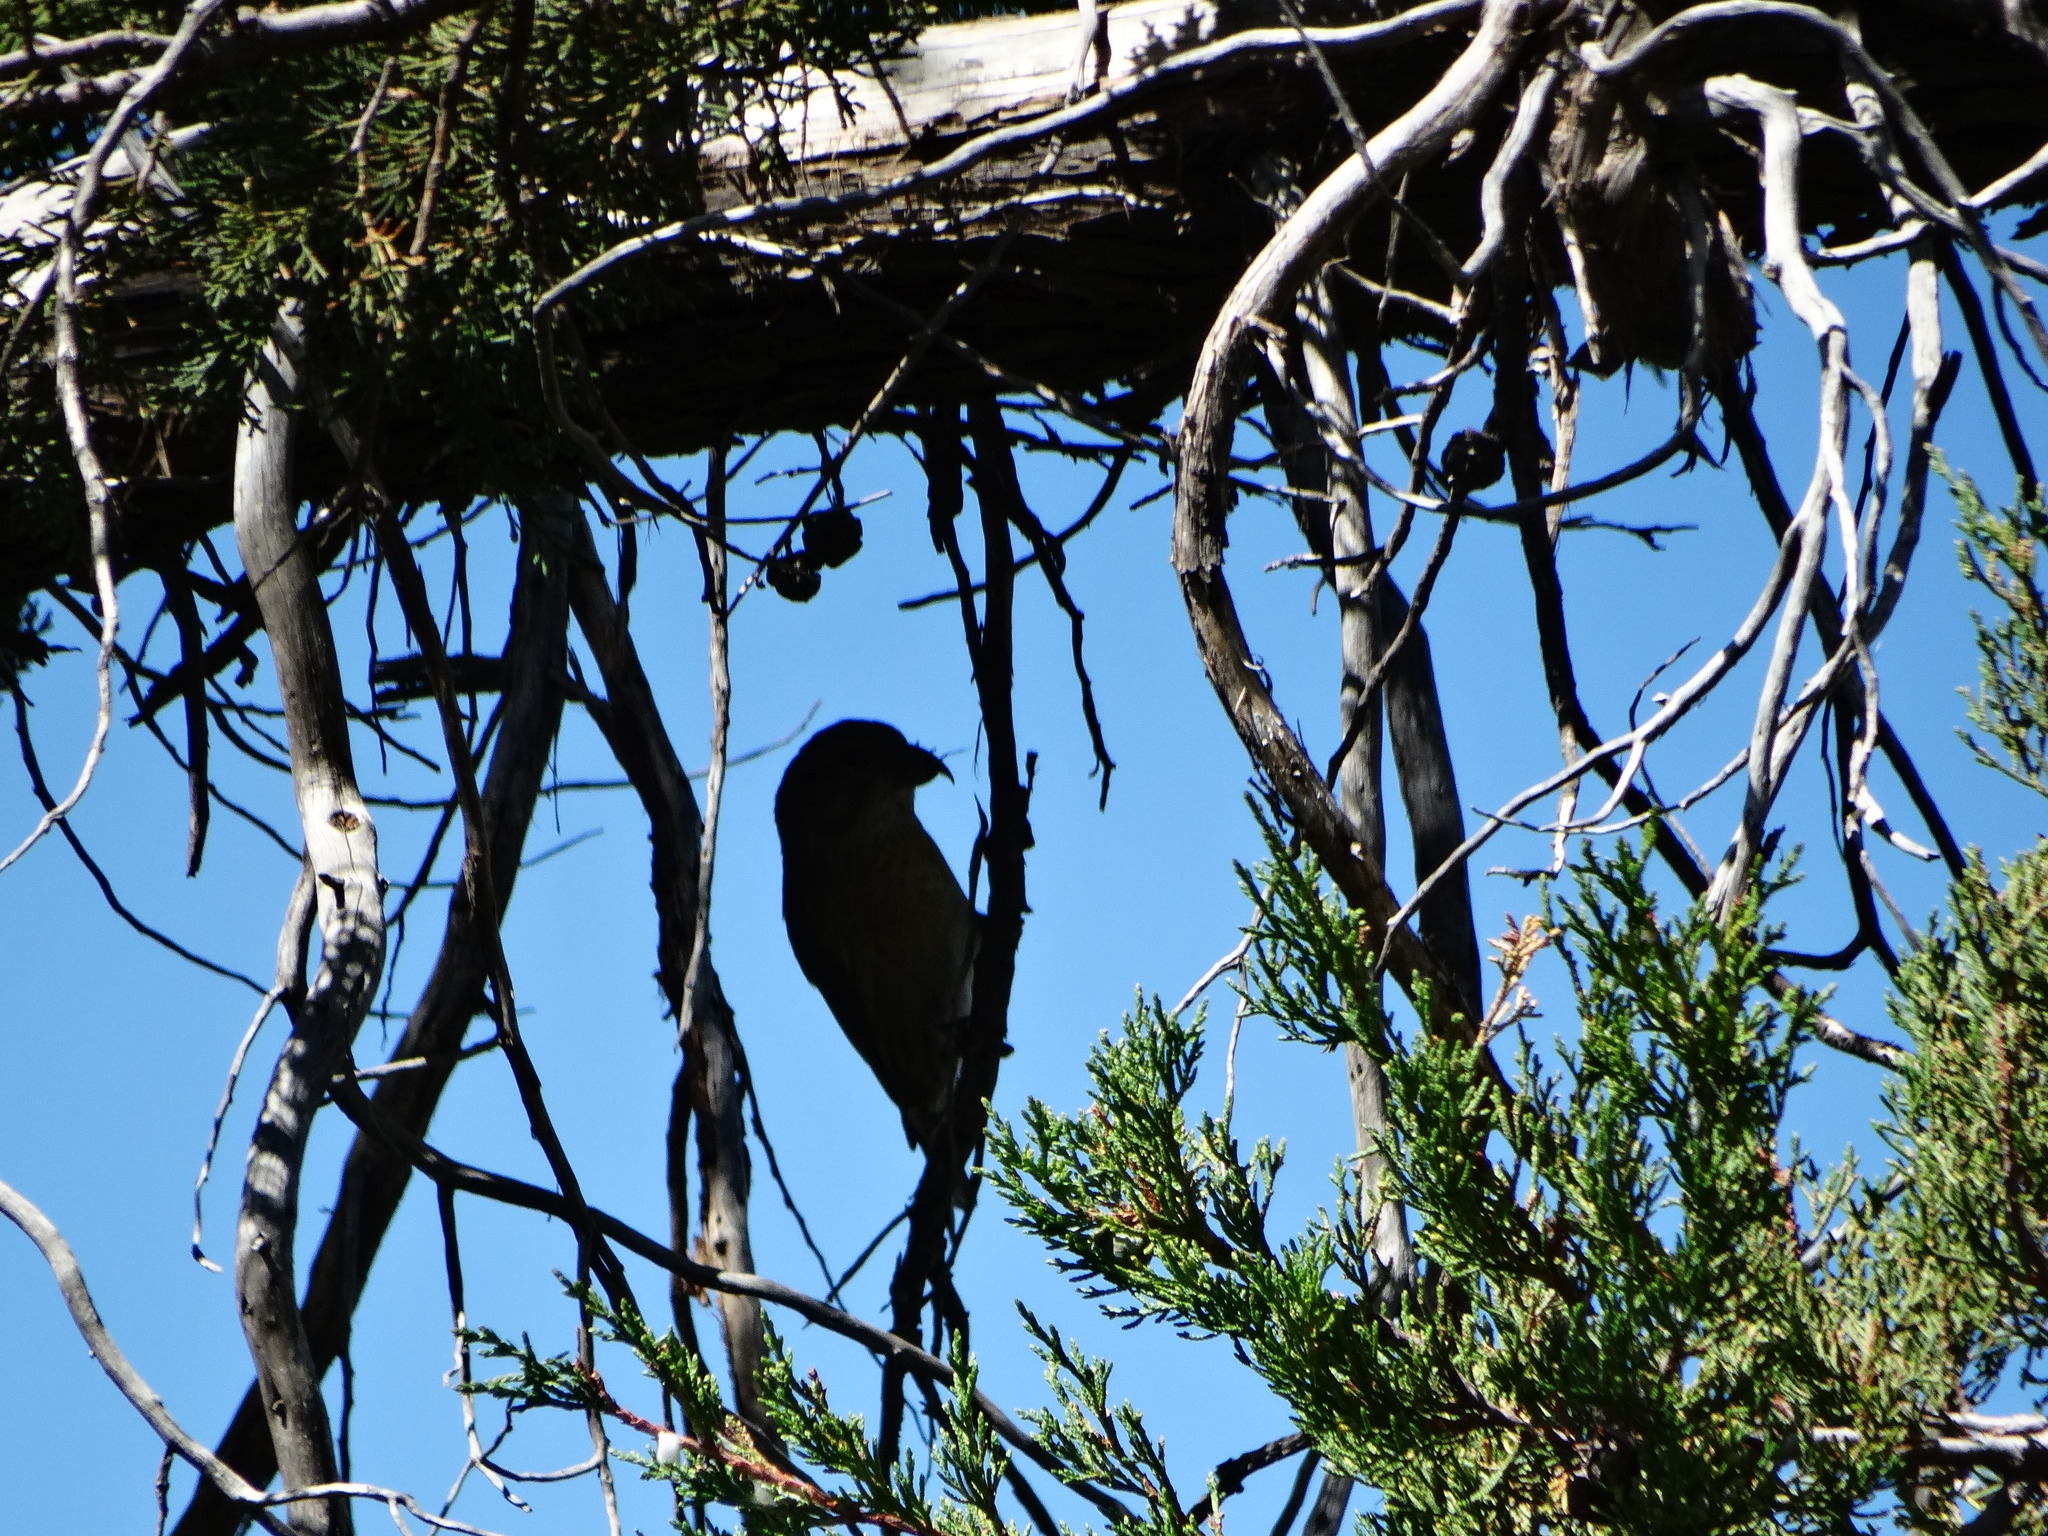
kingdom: Animalia
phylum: Chordata
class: Aves
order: Passeriformes
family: Fringillidae
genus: Loxia
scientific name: Loxia curvirostra
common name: Red crossbill
